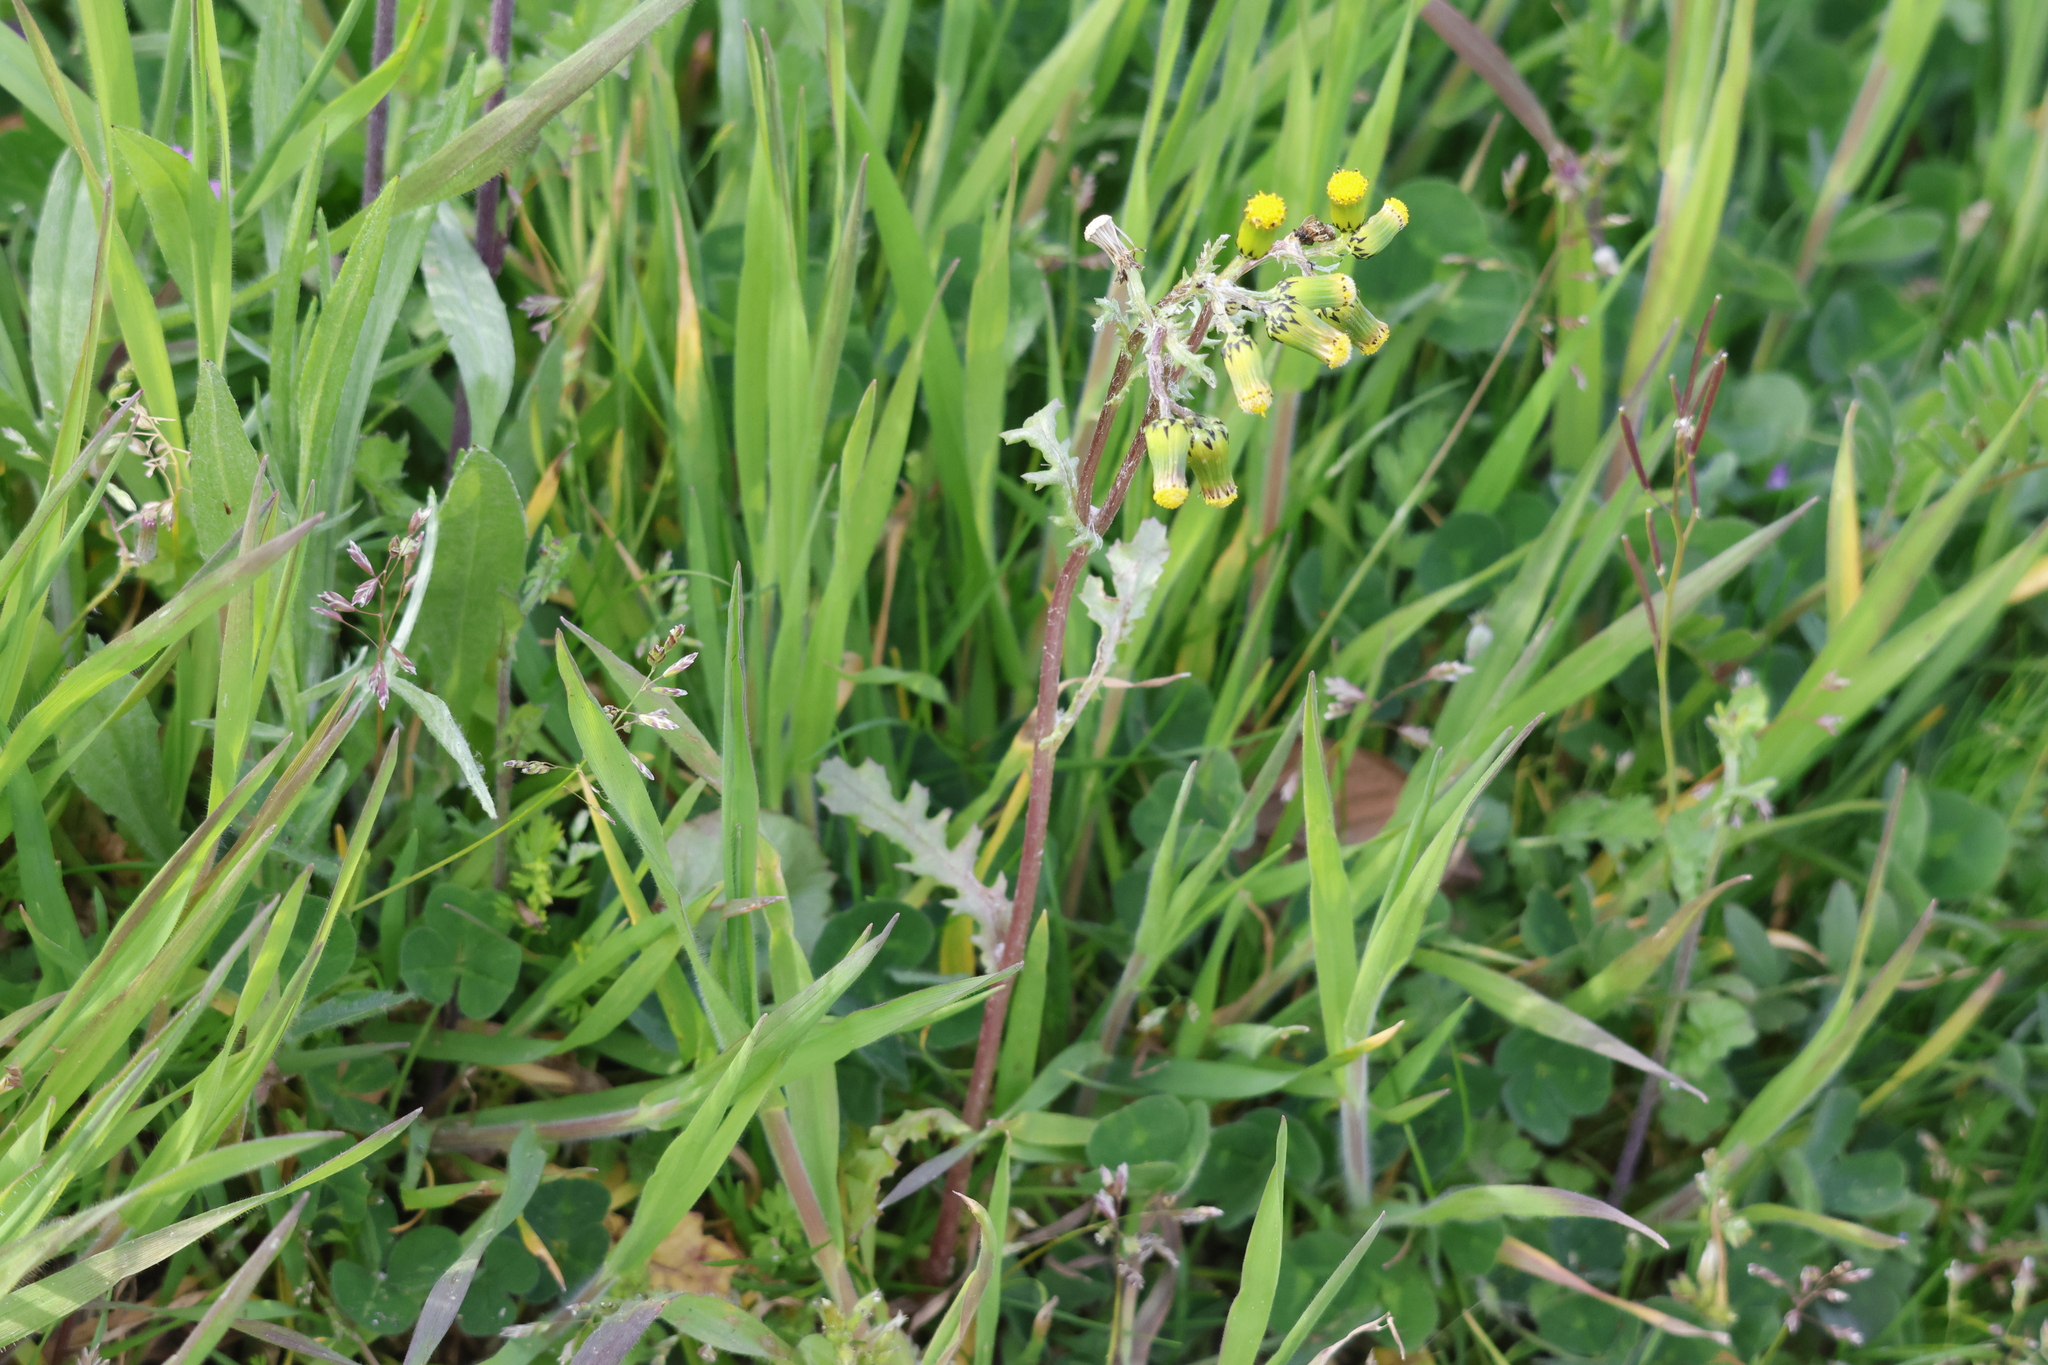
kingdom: Plantae
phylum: Tracheophyta
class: Magnoliopsida
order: Asterales
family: Asteraceae
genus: Senecio
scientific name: Senecio vulgaris
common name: Old-man-in-the-spring
